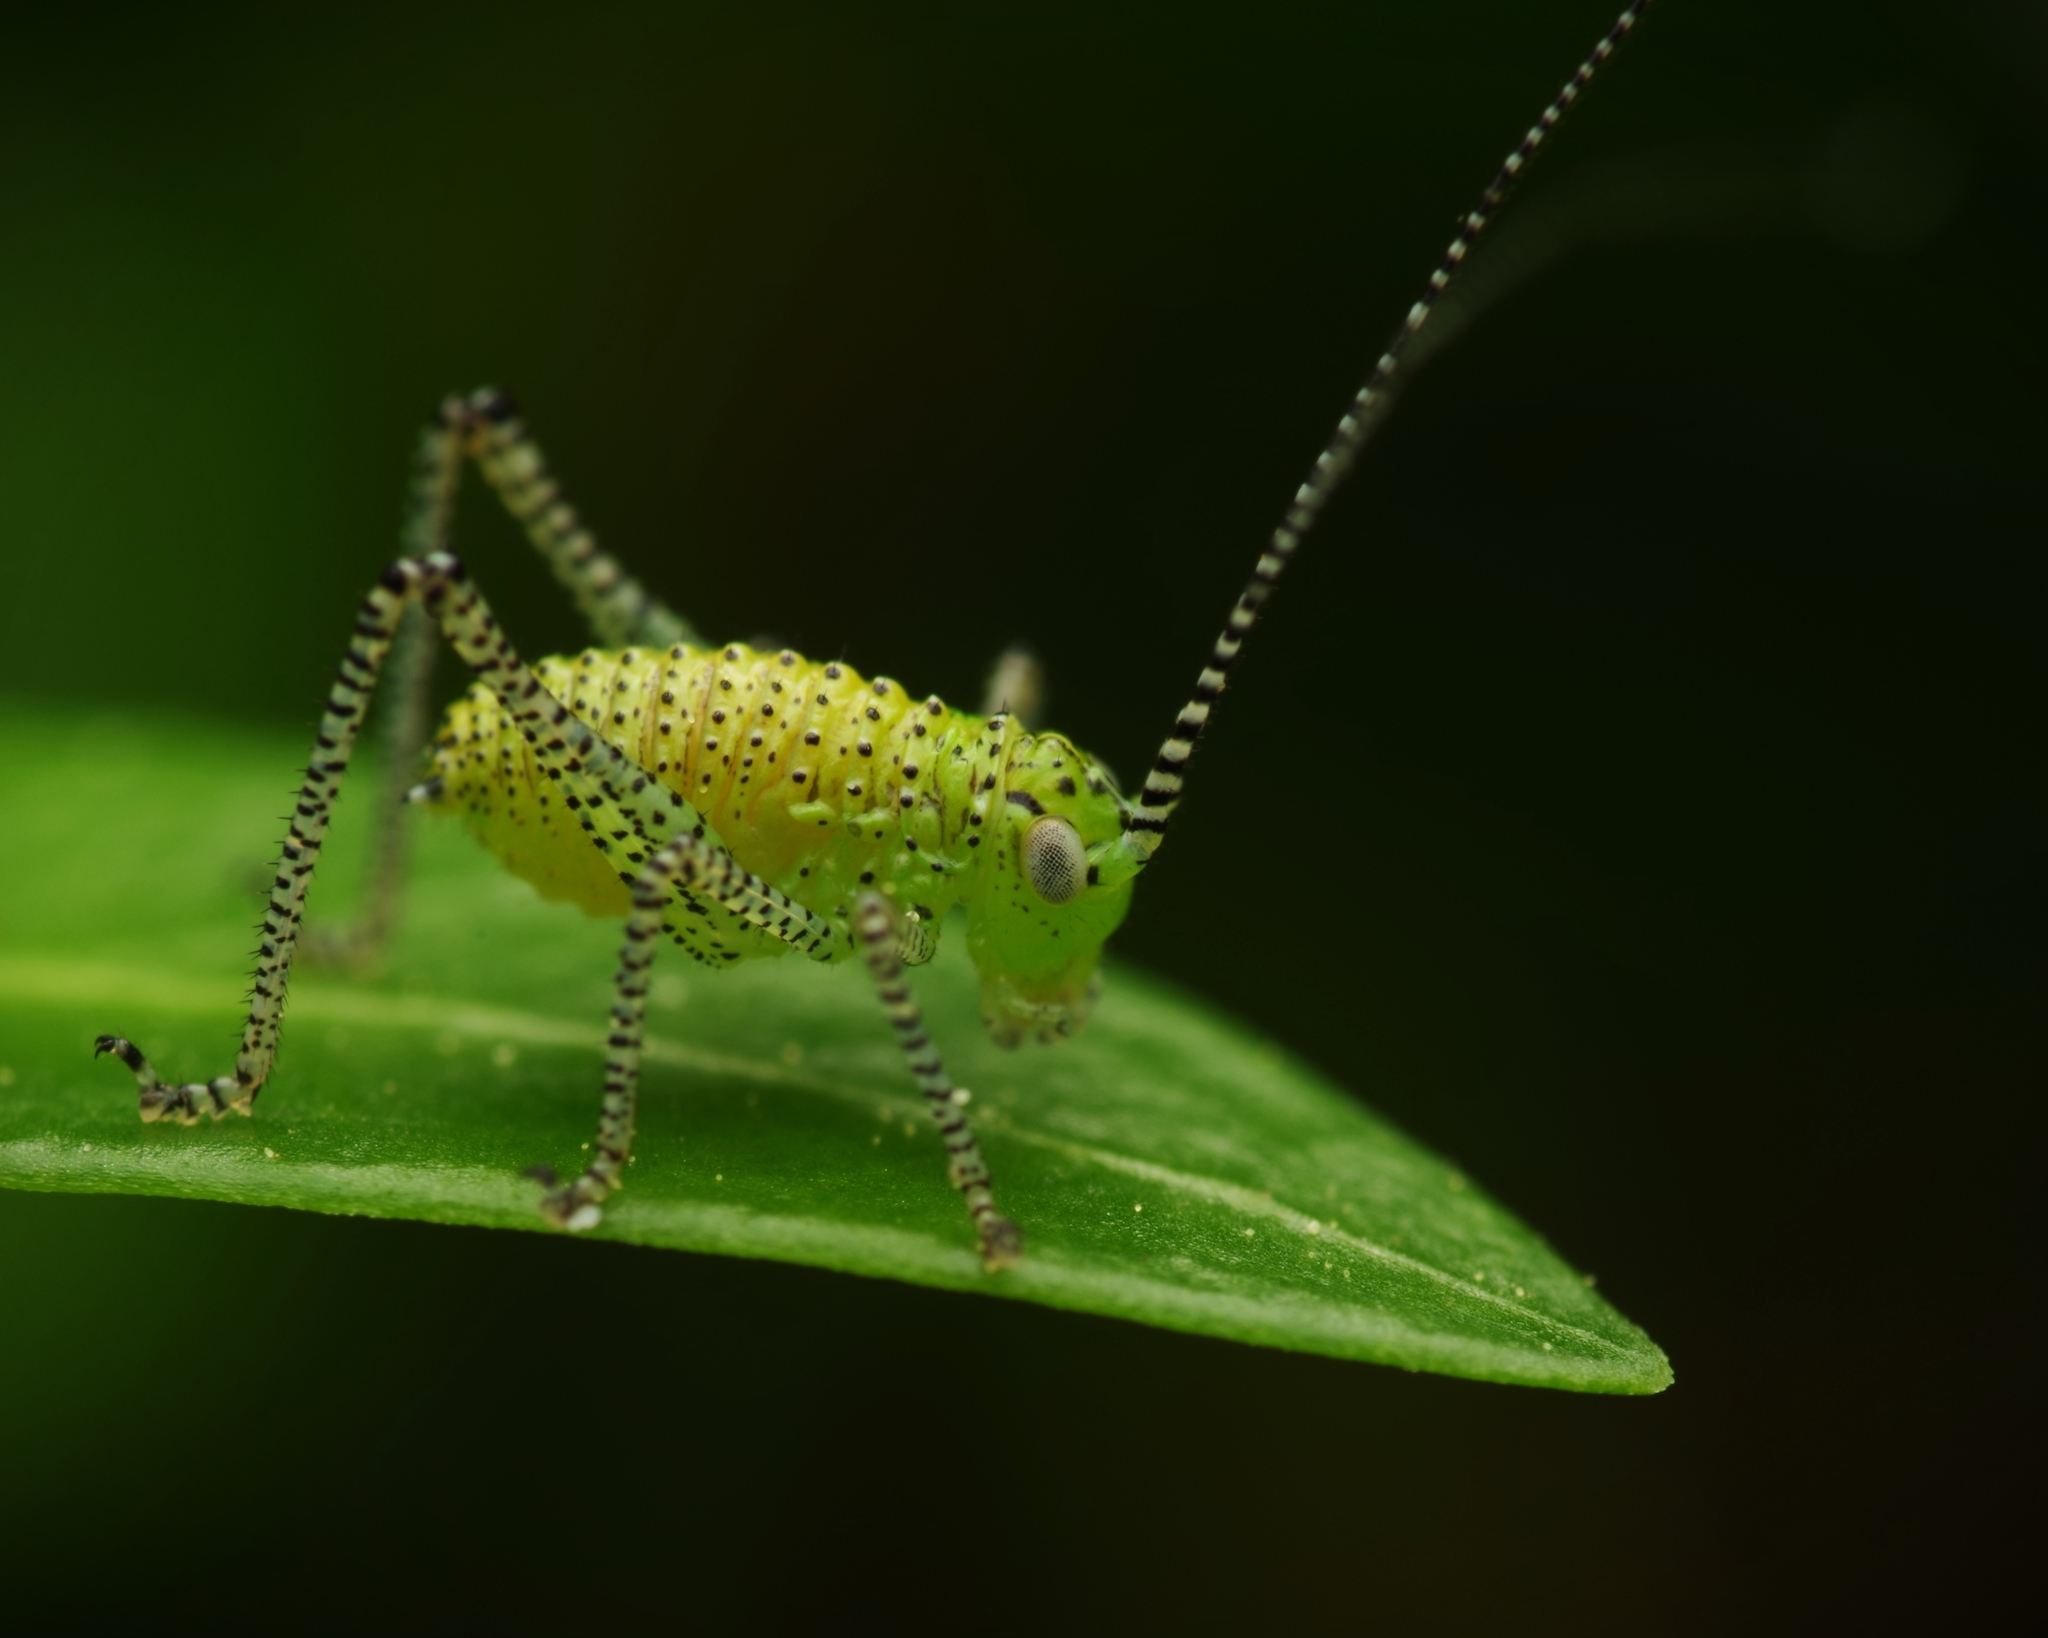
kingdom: Animalia
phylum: Arthropoda
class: Insecta
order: Orthoptera
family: Tettigoniidae
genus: Leptophyes
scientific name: Leptophyes punctatissima
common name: Speckled bush-cricket
